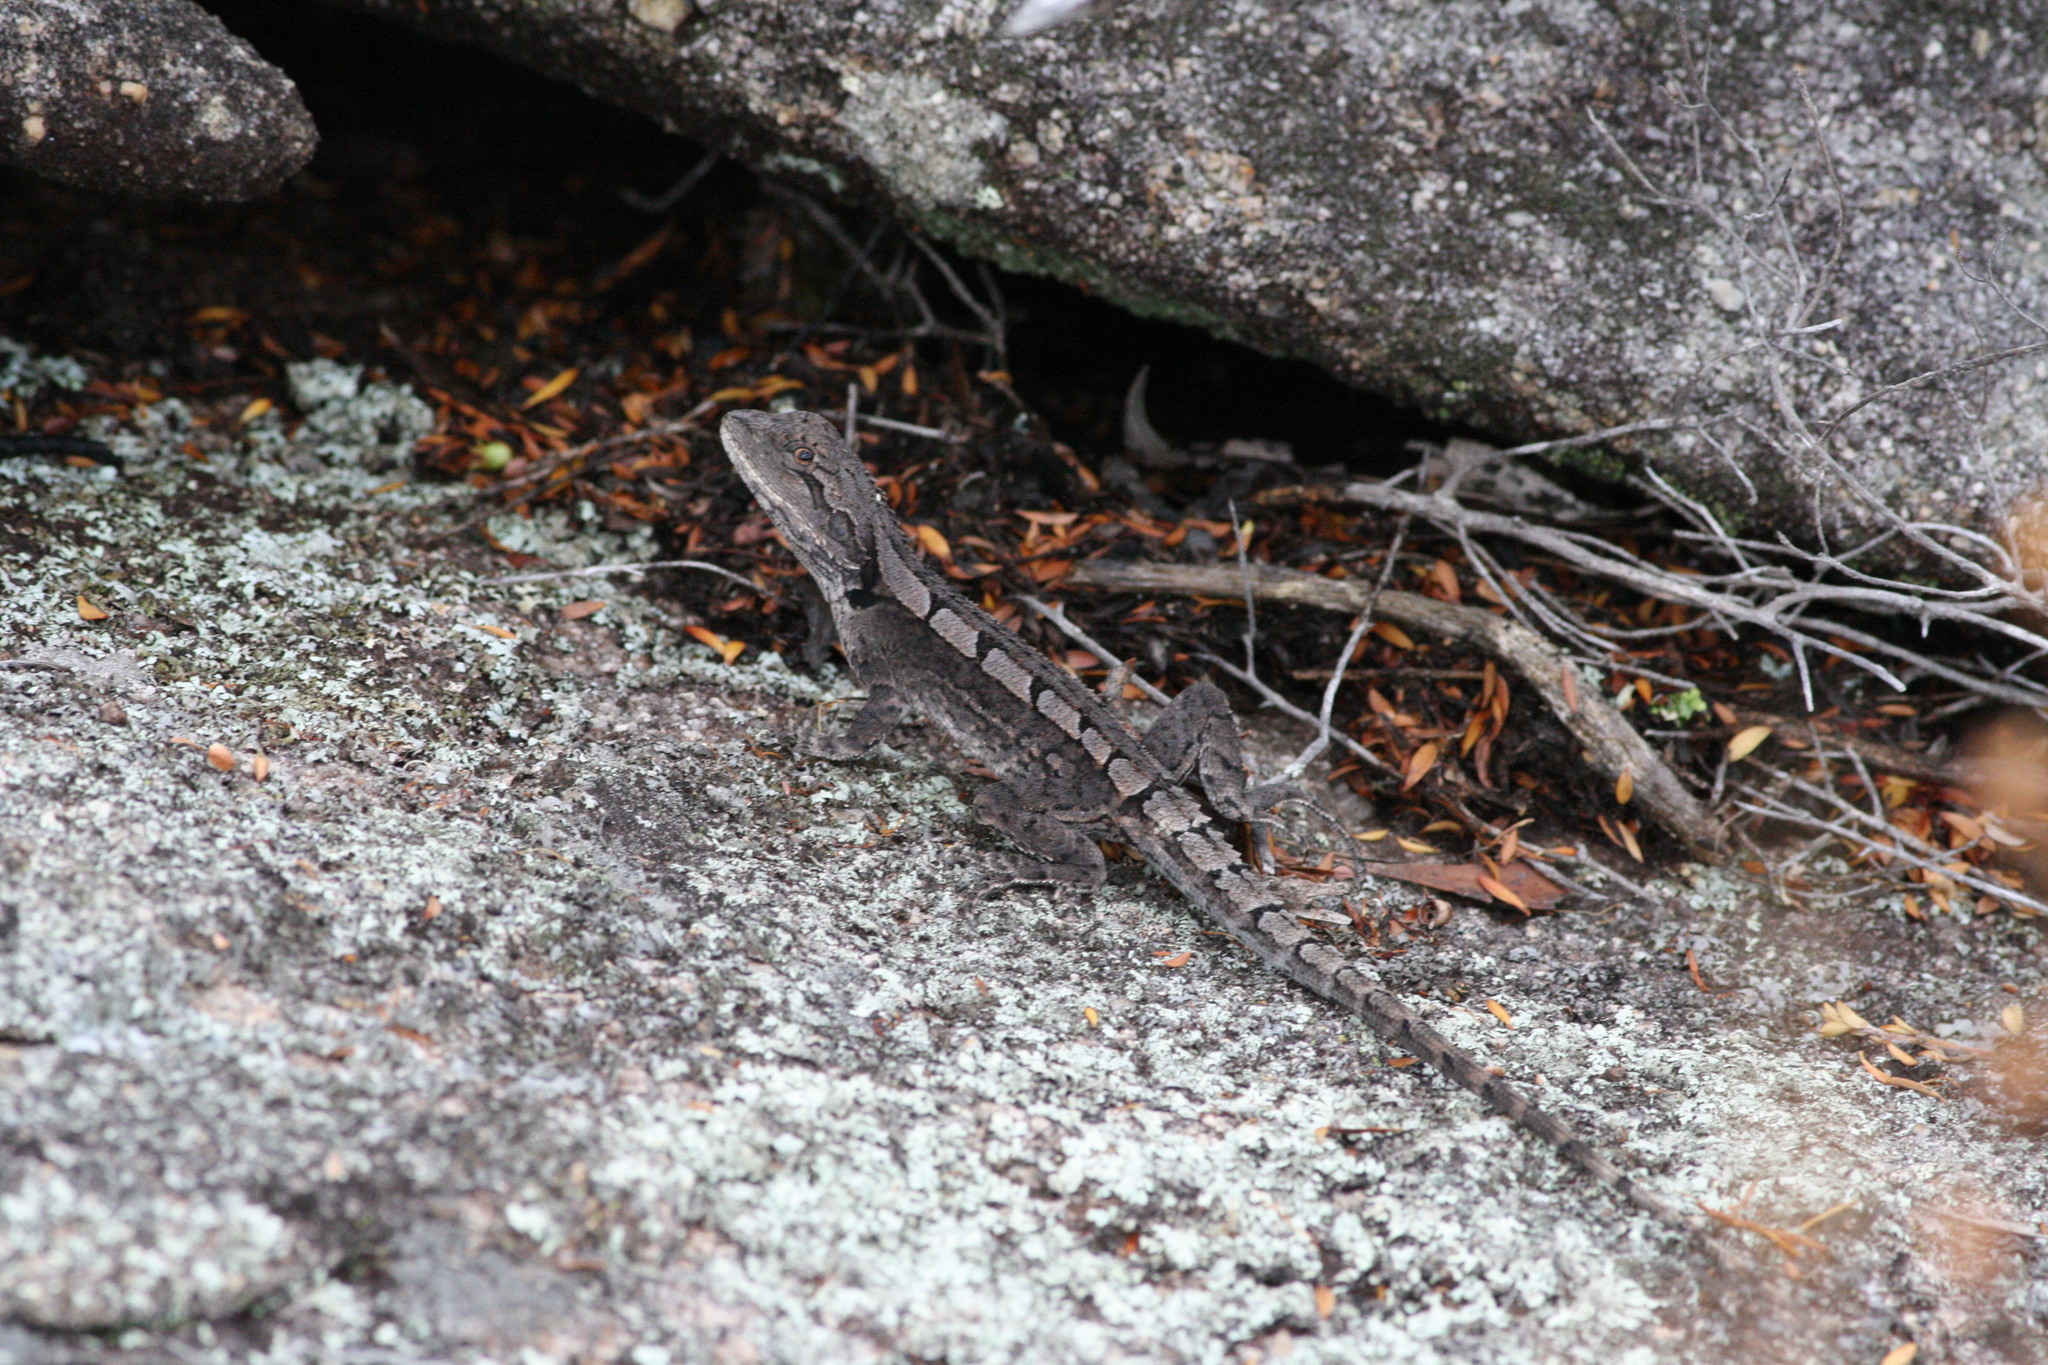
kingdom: Animalia
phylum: Chordata
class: Squamata
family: Agamidae
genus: Amphibolurus
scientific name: Amphibolurus muricatus
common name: Jacky lizard
